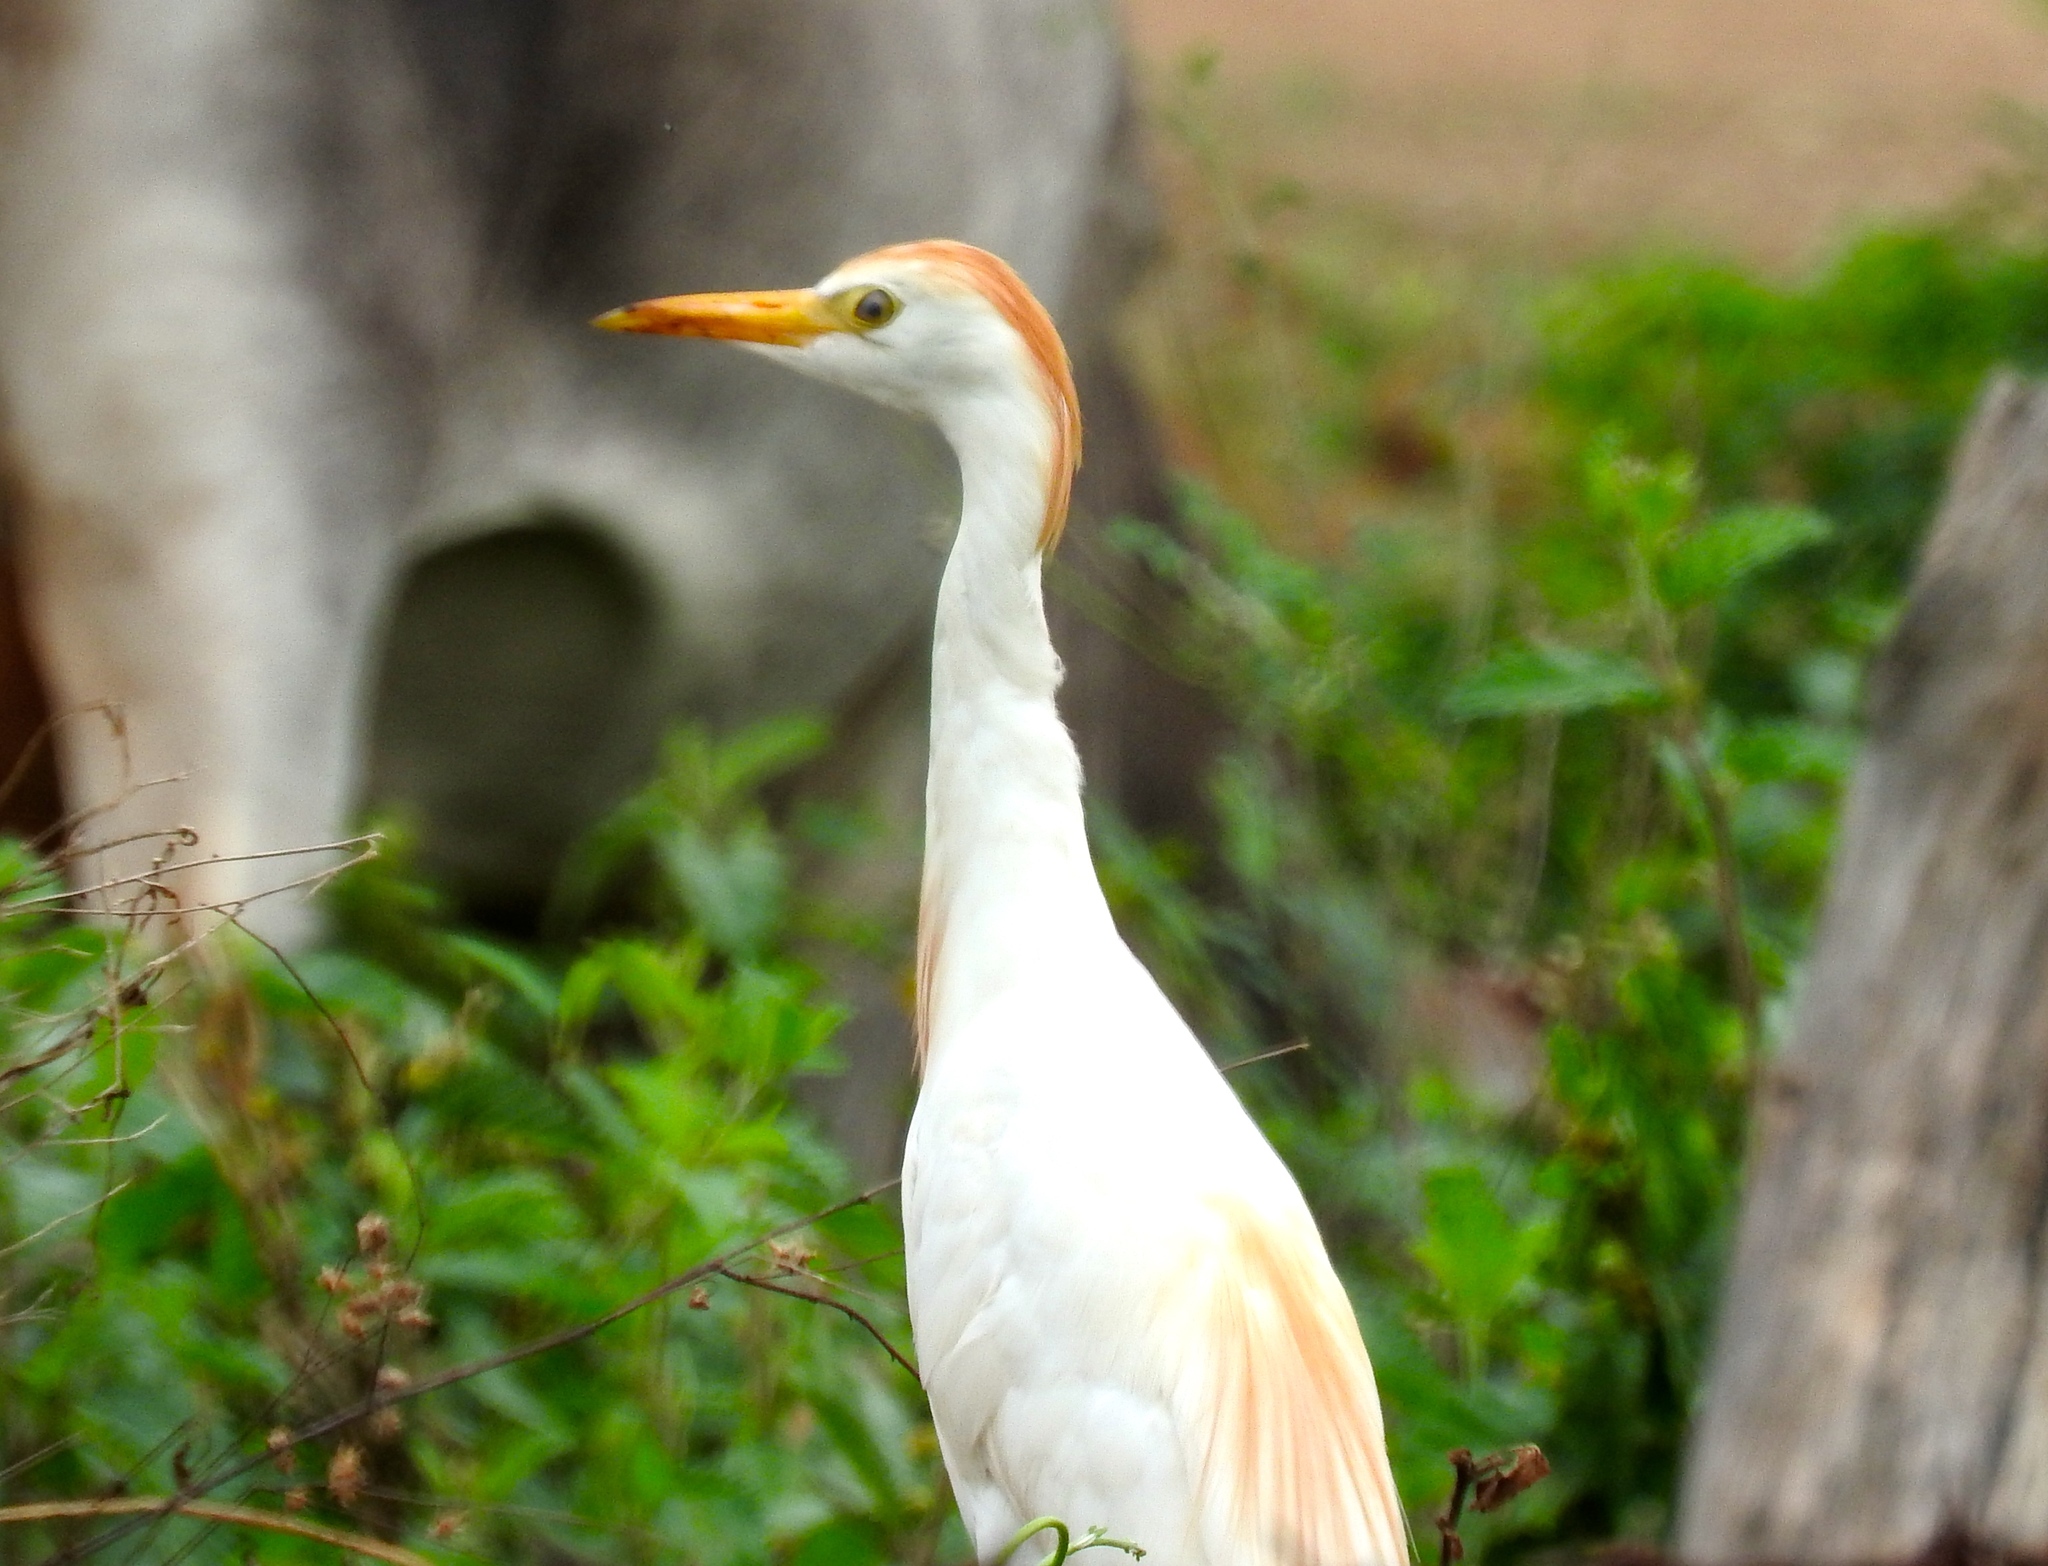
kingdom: Animalia
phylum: Chordata
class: Aves
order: Pelecaniformes
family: Ardeidae
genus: Bubulcus
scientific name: Bubulcus ibis
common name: Cattle egret
